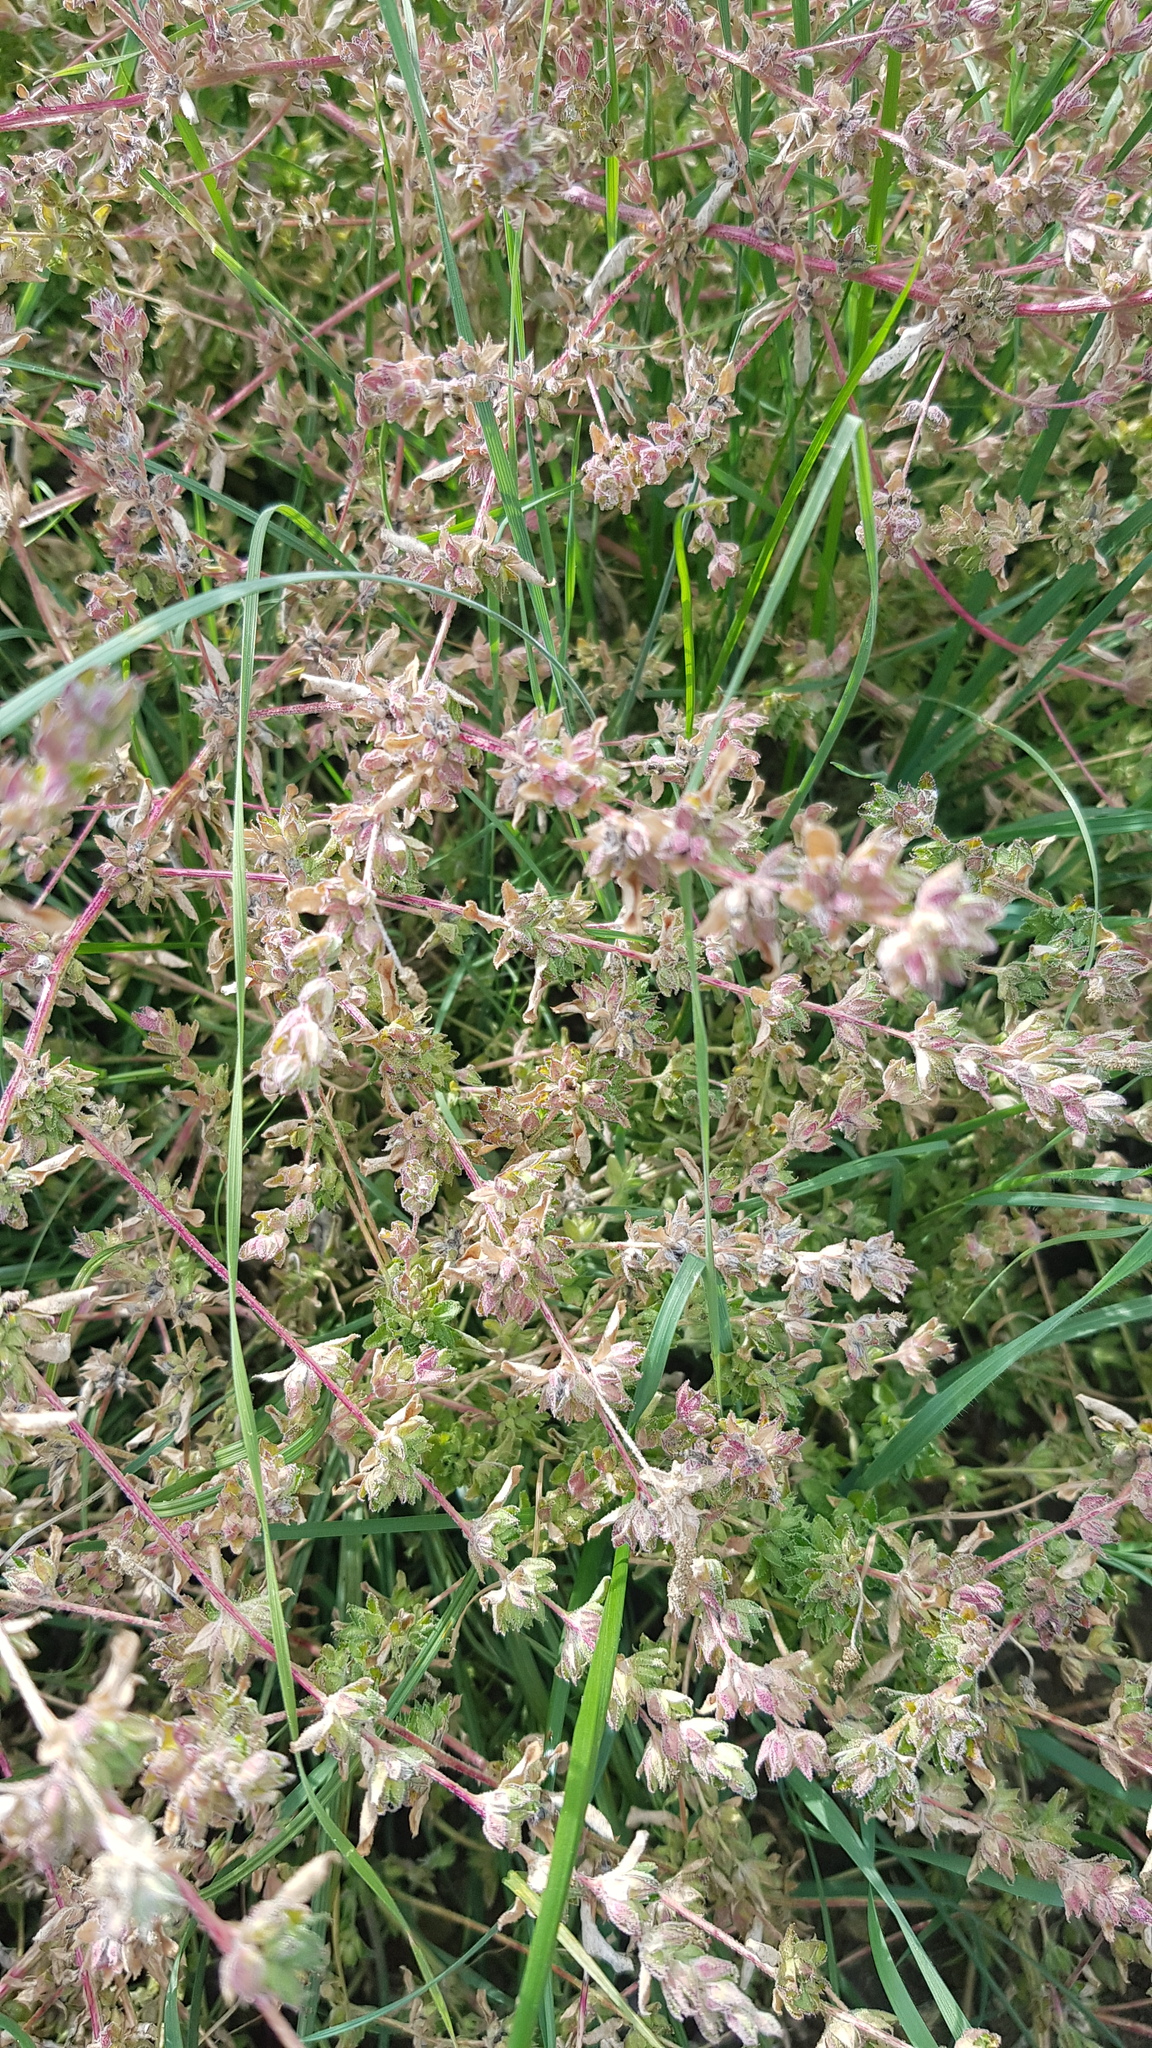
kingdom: Plantae
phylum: Tracheophyta
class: Magnoliopsida
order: Caryophyllales
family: Amaranthaceae
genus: Axyris
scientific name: Axyris amaranthoides
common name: Russian pigweed
